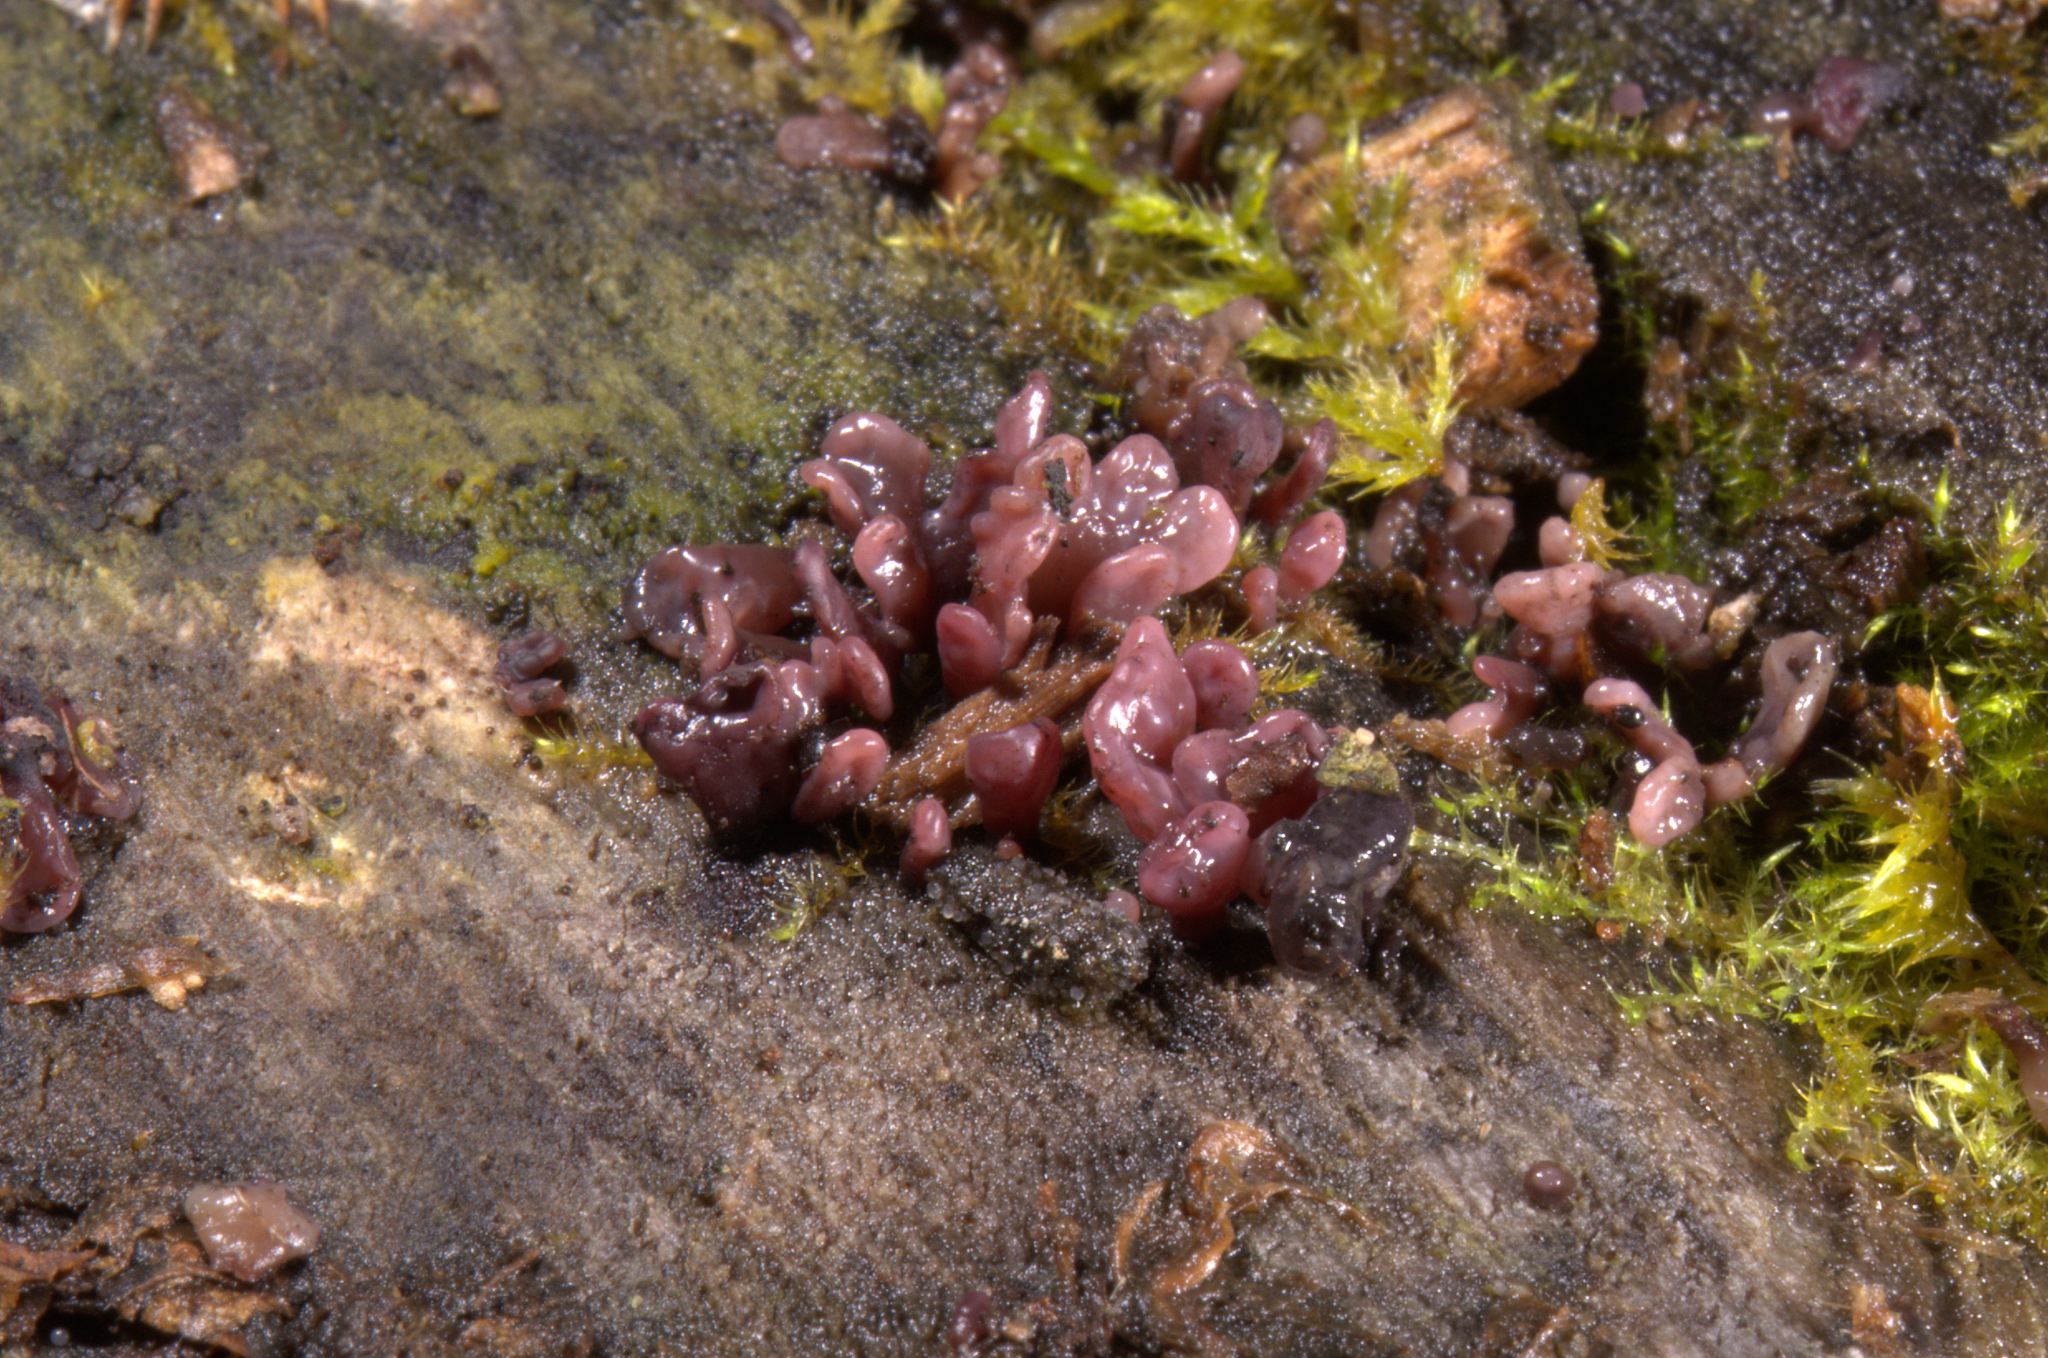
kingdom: Fungi
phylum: Ascomycota
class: Leotiomycetes
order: Helotiales
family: Gelatinodiscaceae
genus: Ascocoryne
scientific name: Ascocoryne sarcoides
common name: Purple jellydisc
